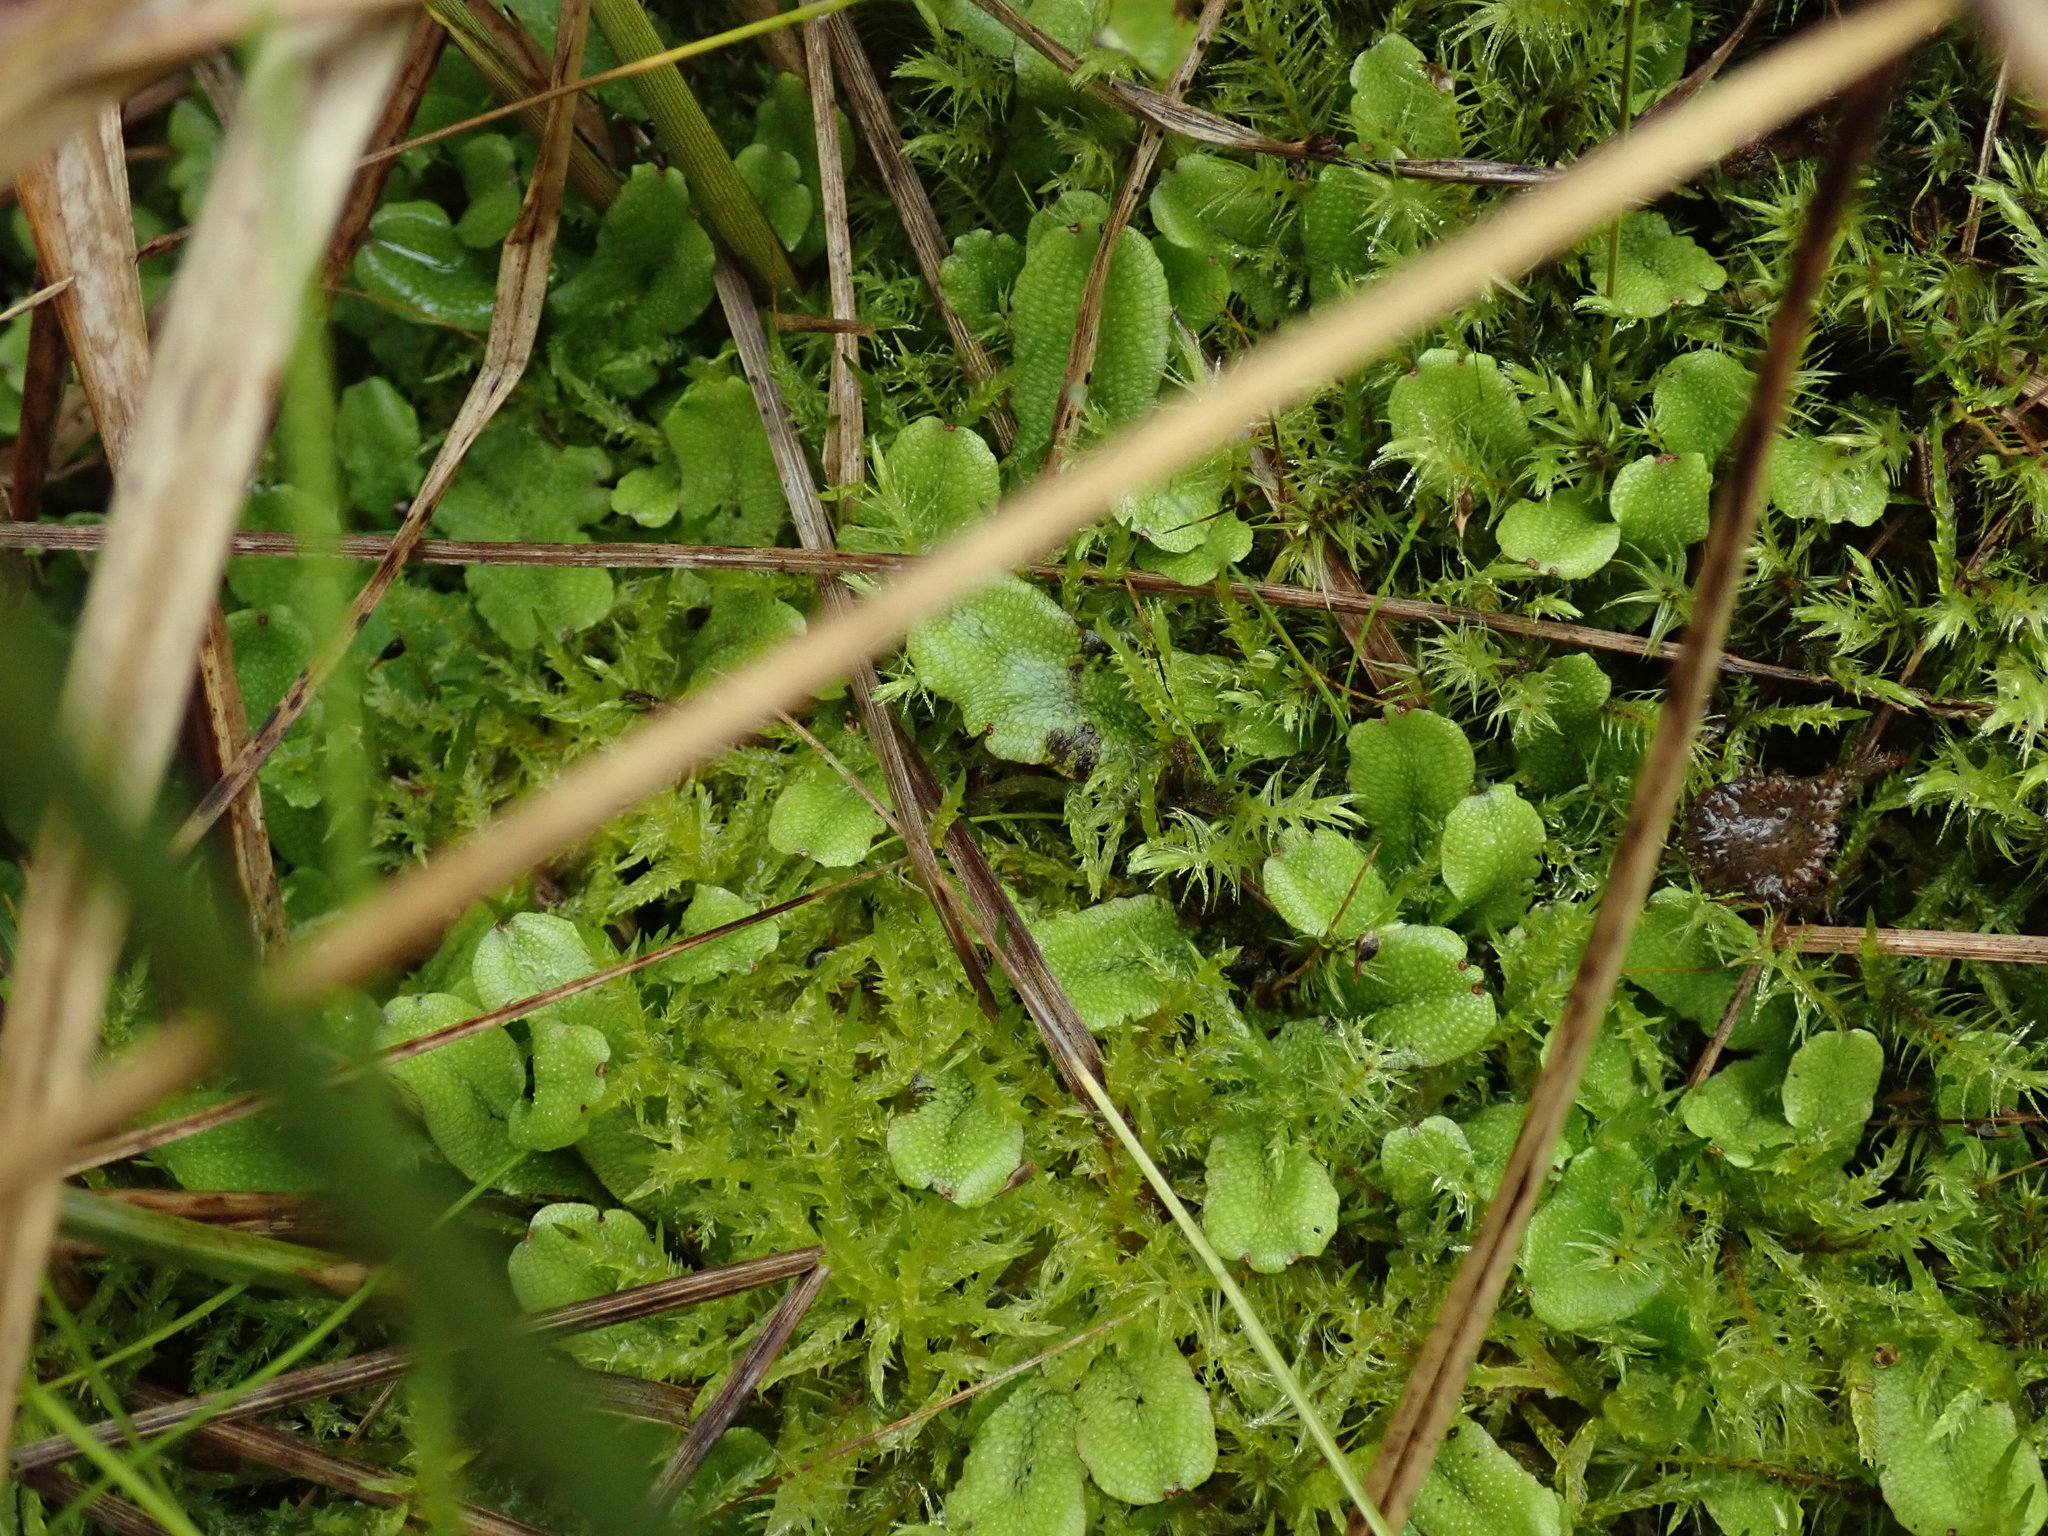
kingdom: Plantae
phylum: Marchantiophyta
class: Marchantiopsida
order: Marchantiales
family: Conocephalaceae
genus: Conocephalum
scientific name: Conocephalum salebrosum
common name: Cat-tongue liverwort
